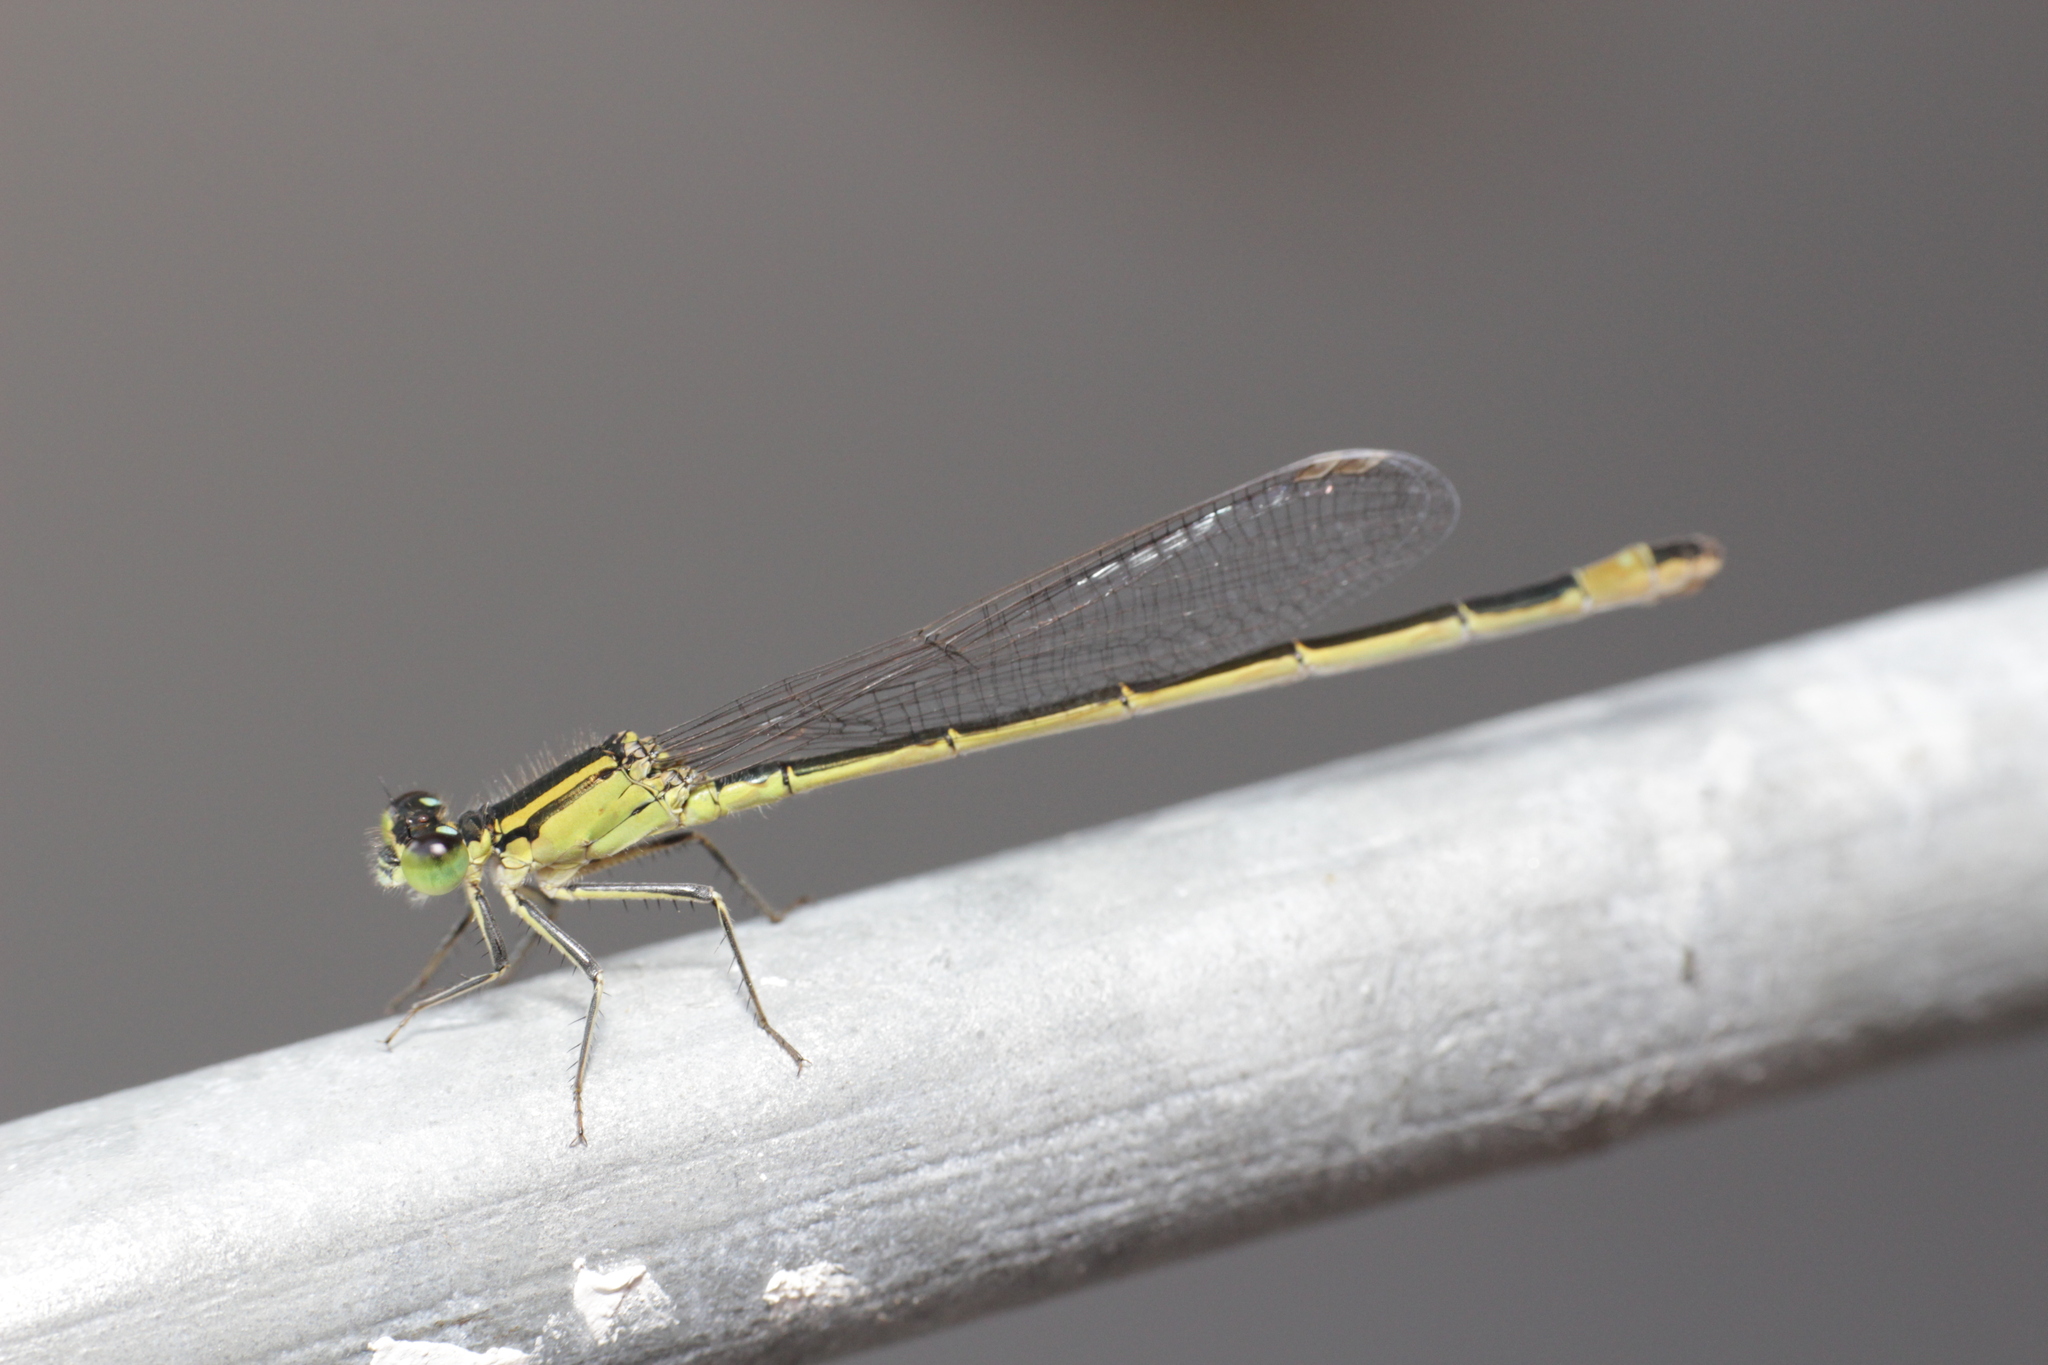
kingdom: Animalia
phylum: Arthropoda
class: Insecta
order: Odonata
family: Coenagrionidae
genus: Ischnura
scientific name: Ischnura elegans
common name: Blue-tailed damselfly
